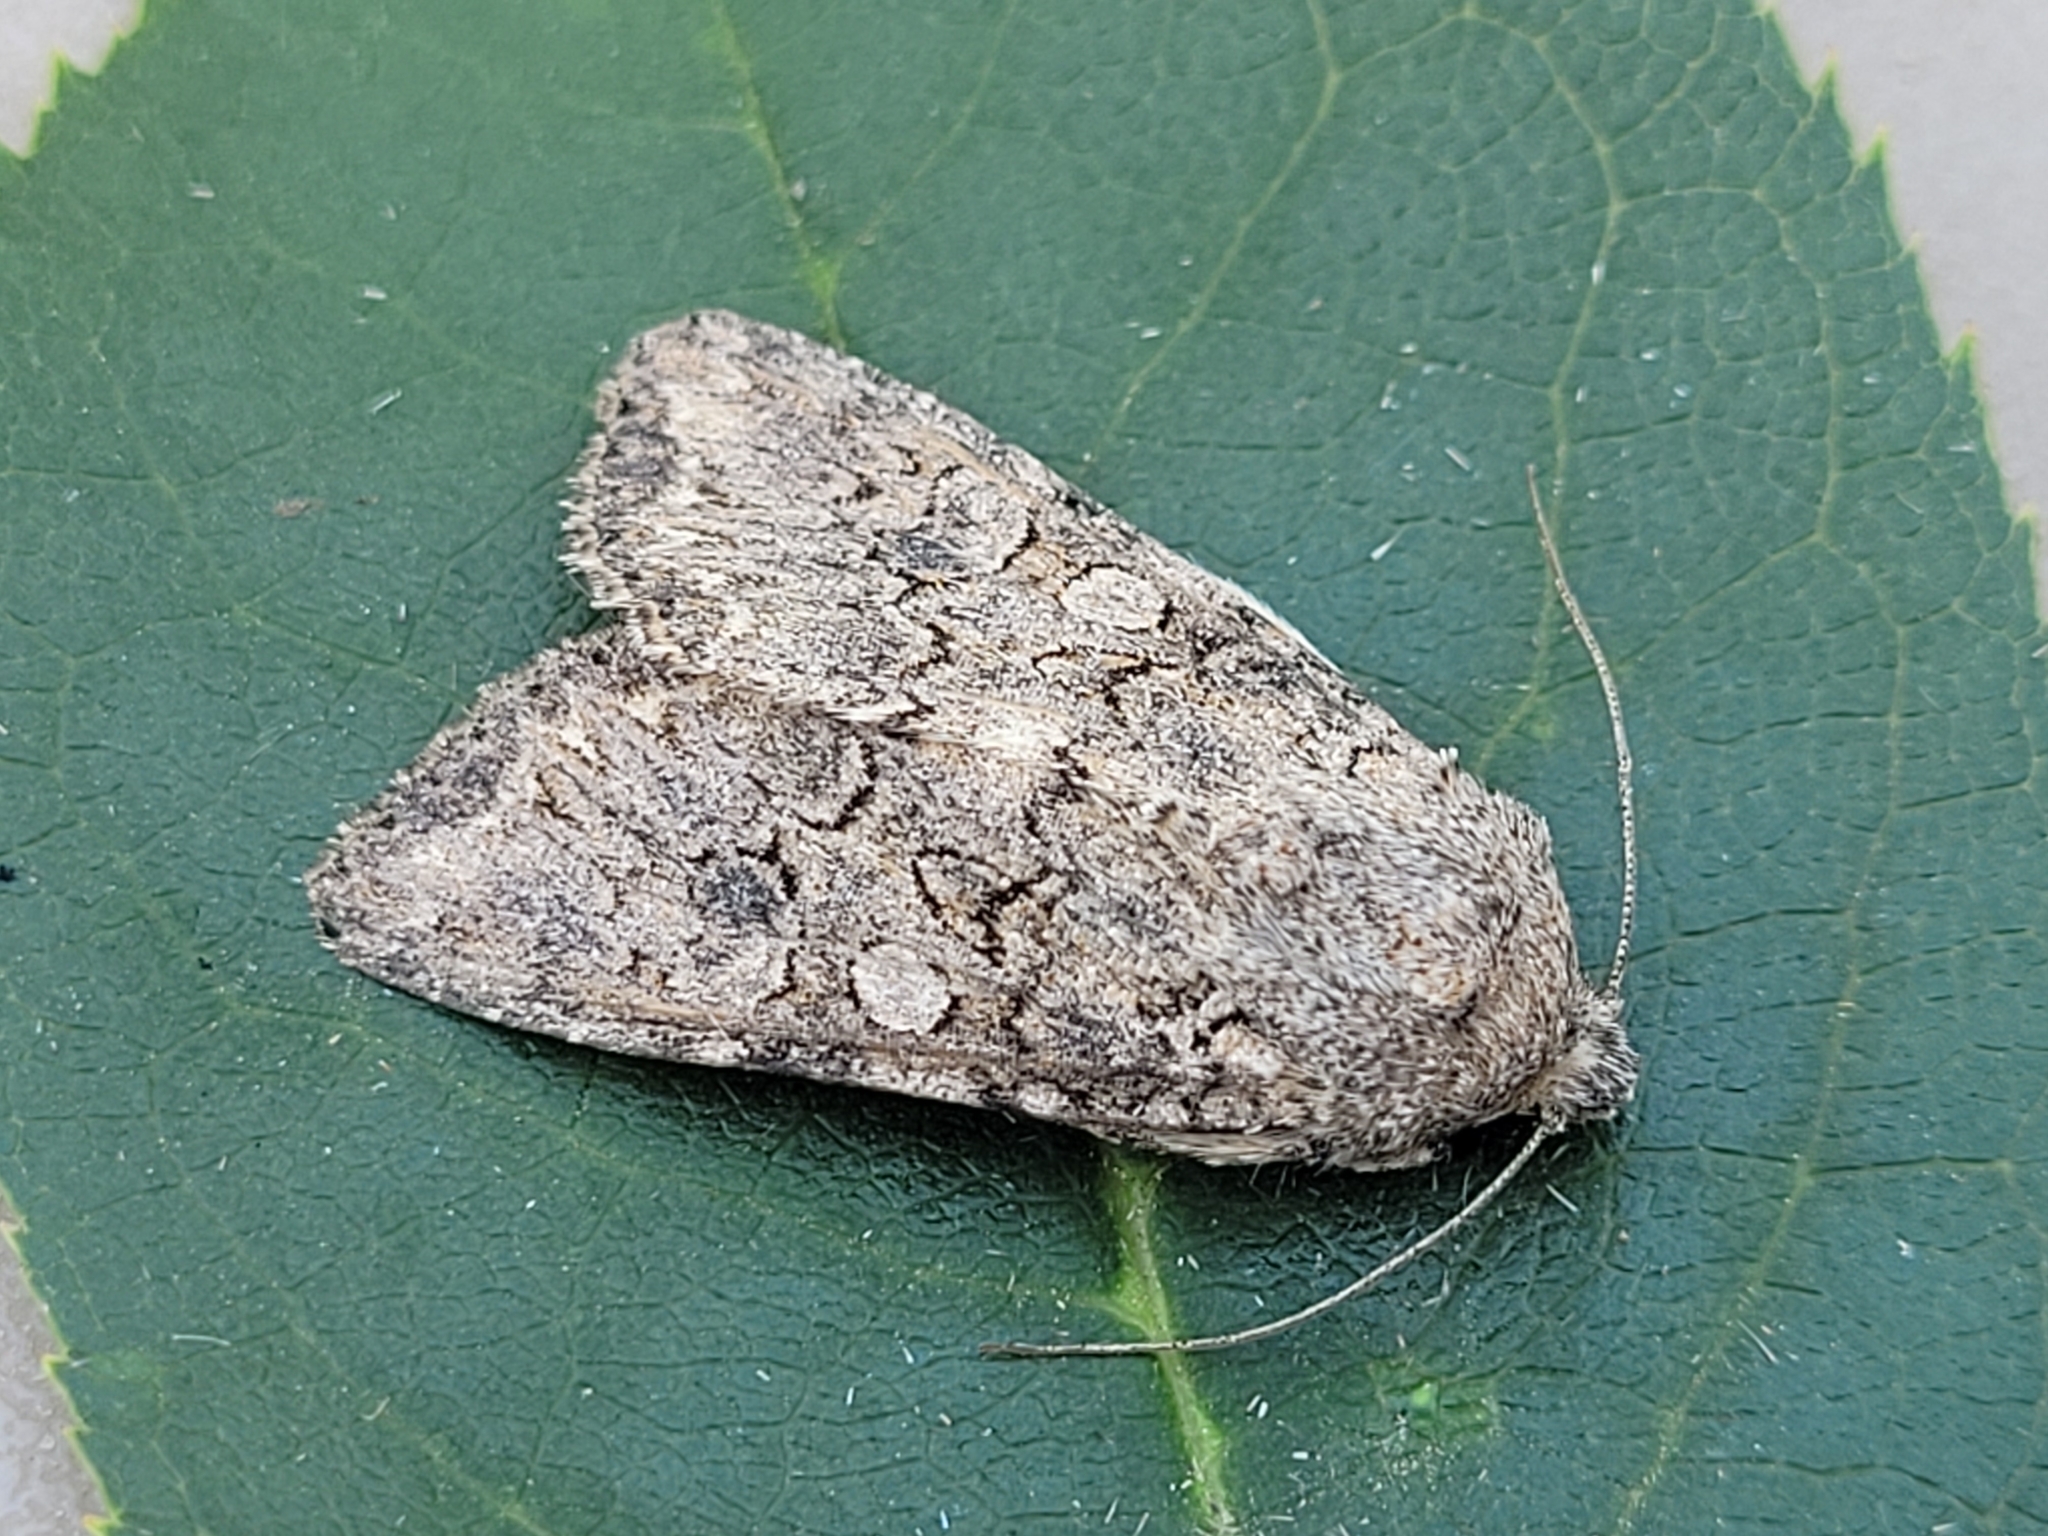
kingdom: Animalia
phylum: Arthropoda
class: Insecta
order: Lepidoptera
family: Noctuidae
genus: Anarta
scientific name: Anarta trifolii
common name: Clover cutworm moth
